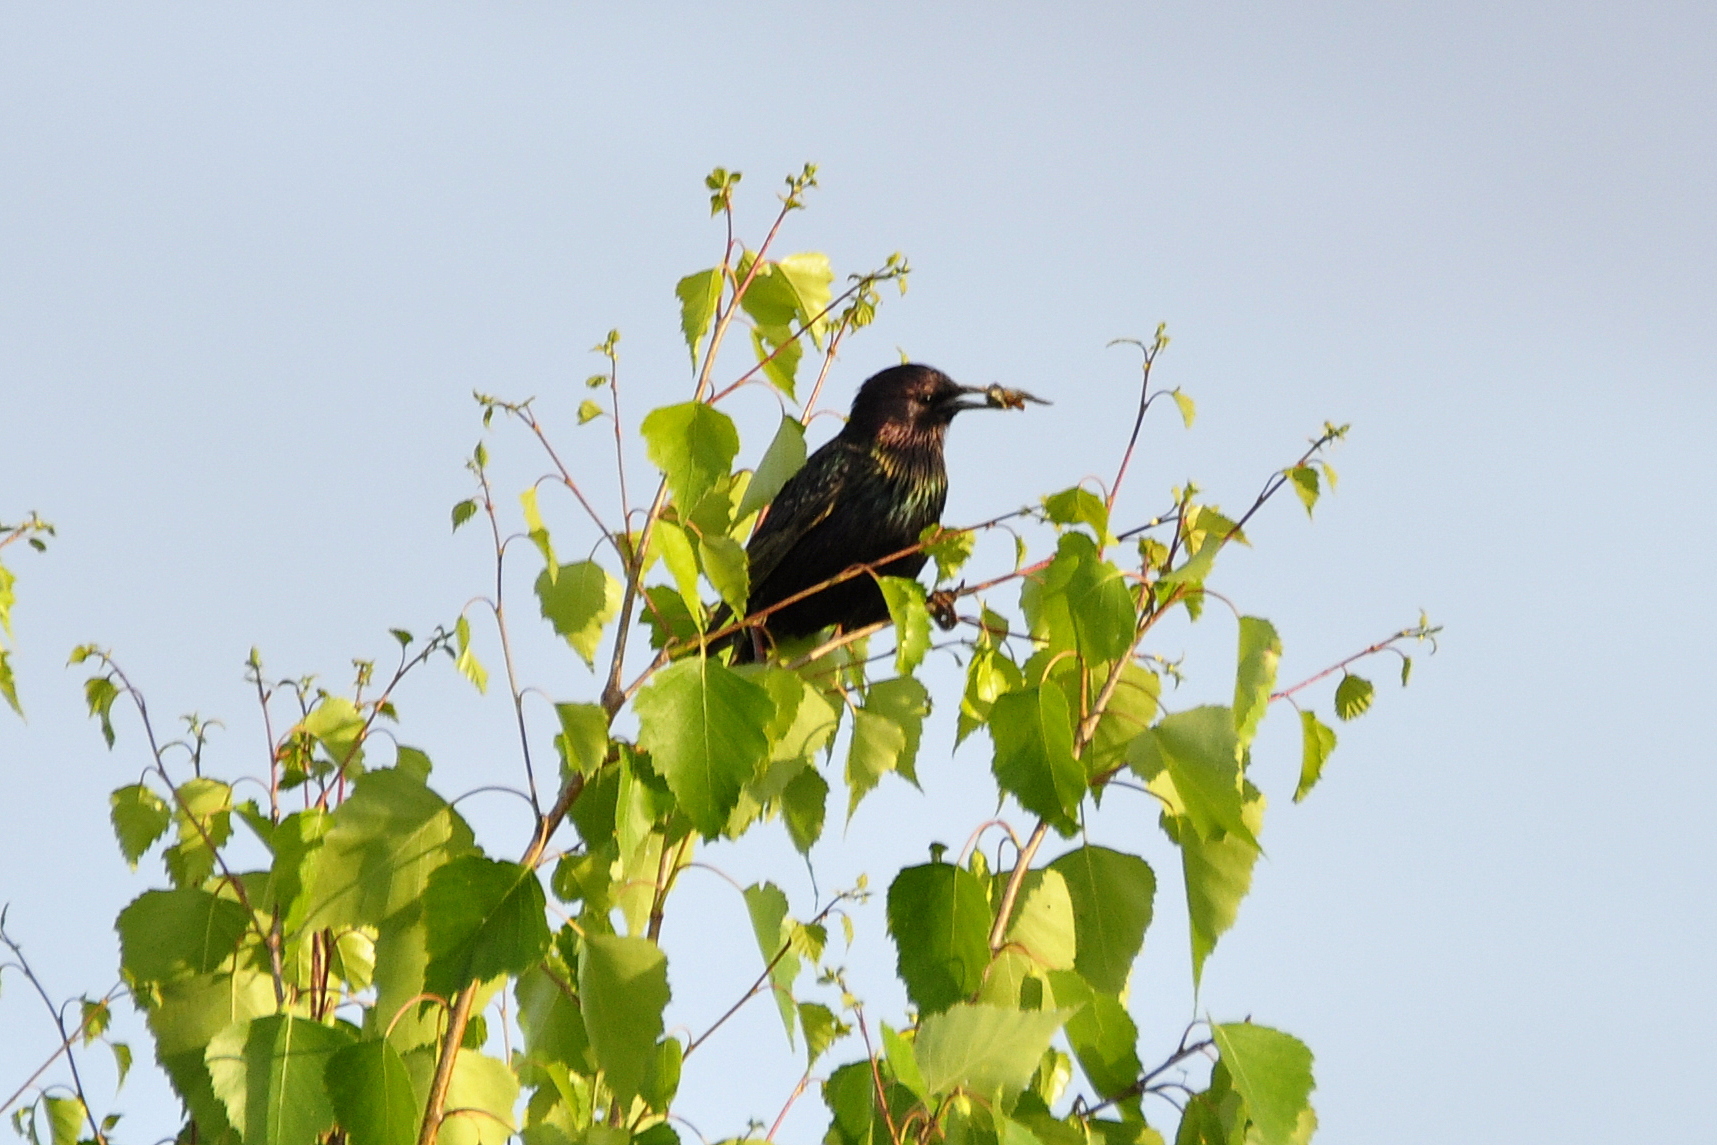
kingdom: Animalia
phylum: Chordata
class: Aves
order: Passeriformes
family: Sturnidae
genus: Sturnus
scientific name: Sturnus vulgaris
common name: Common starling
